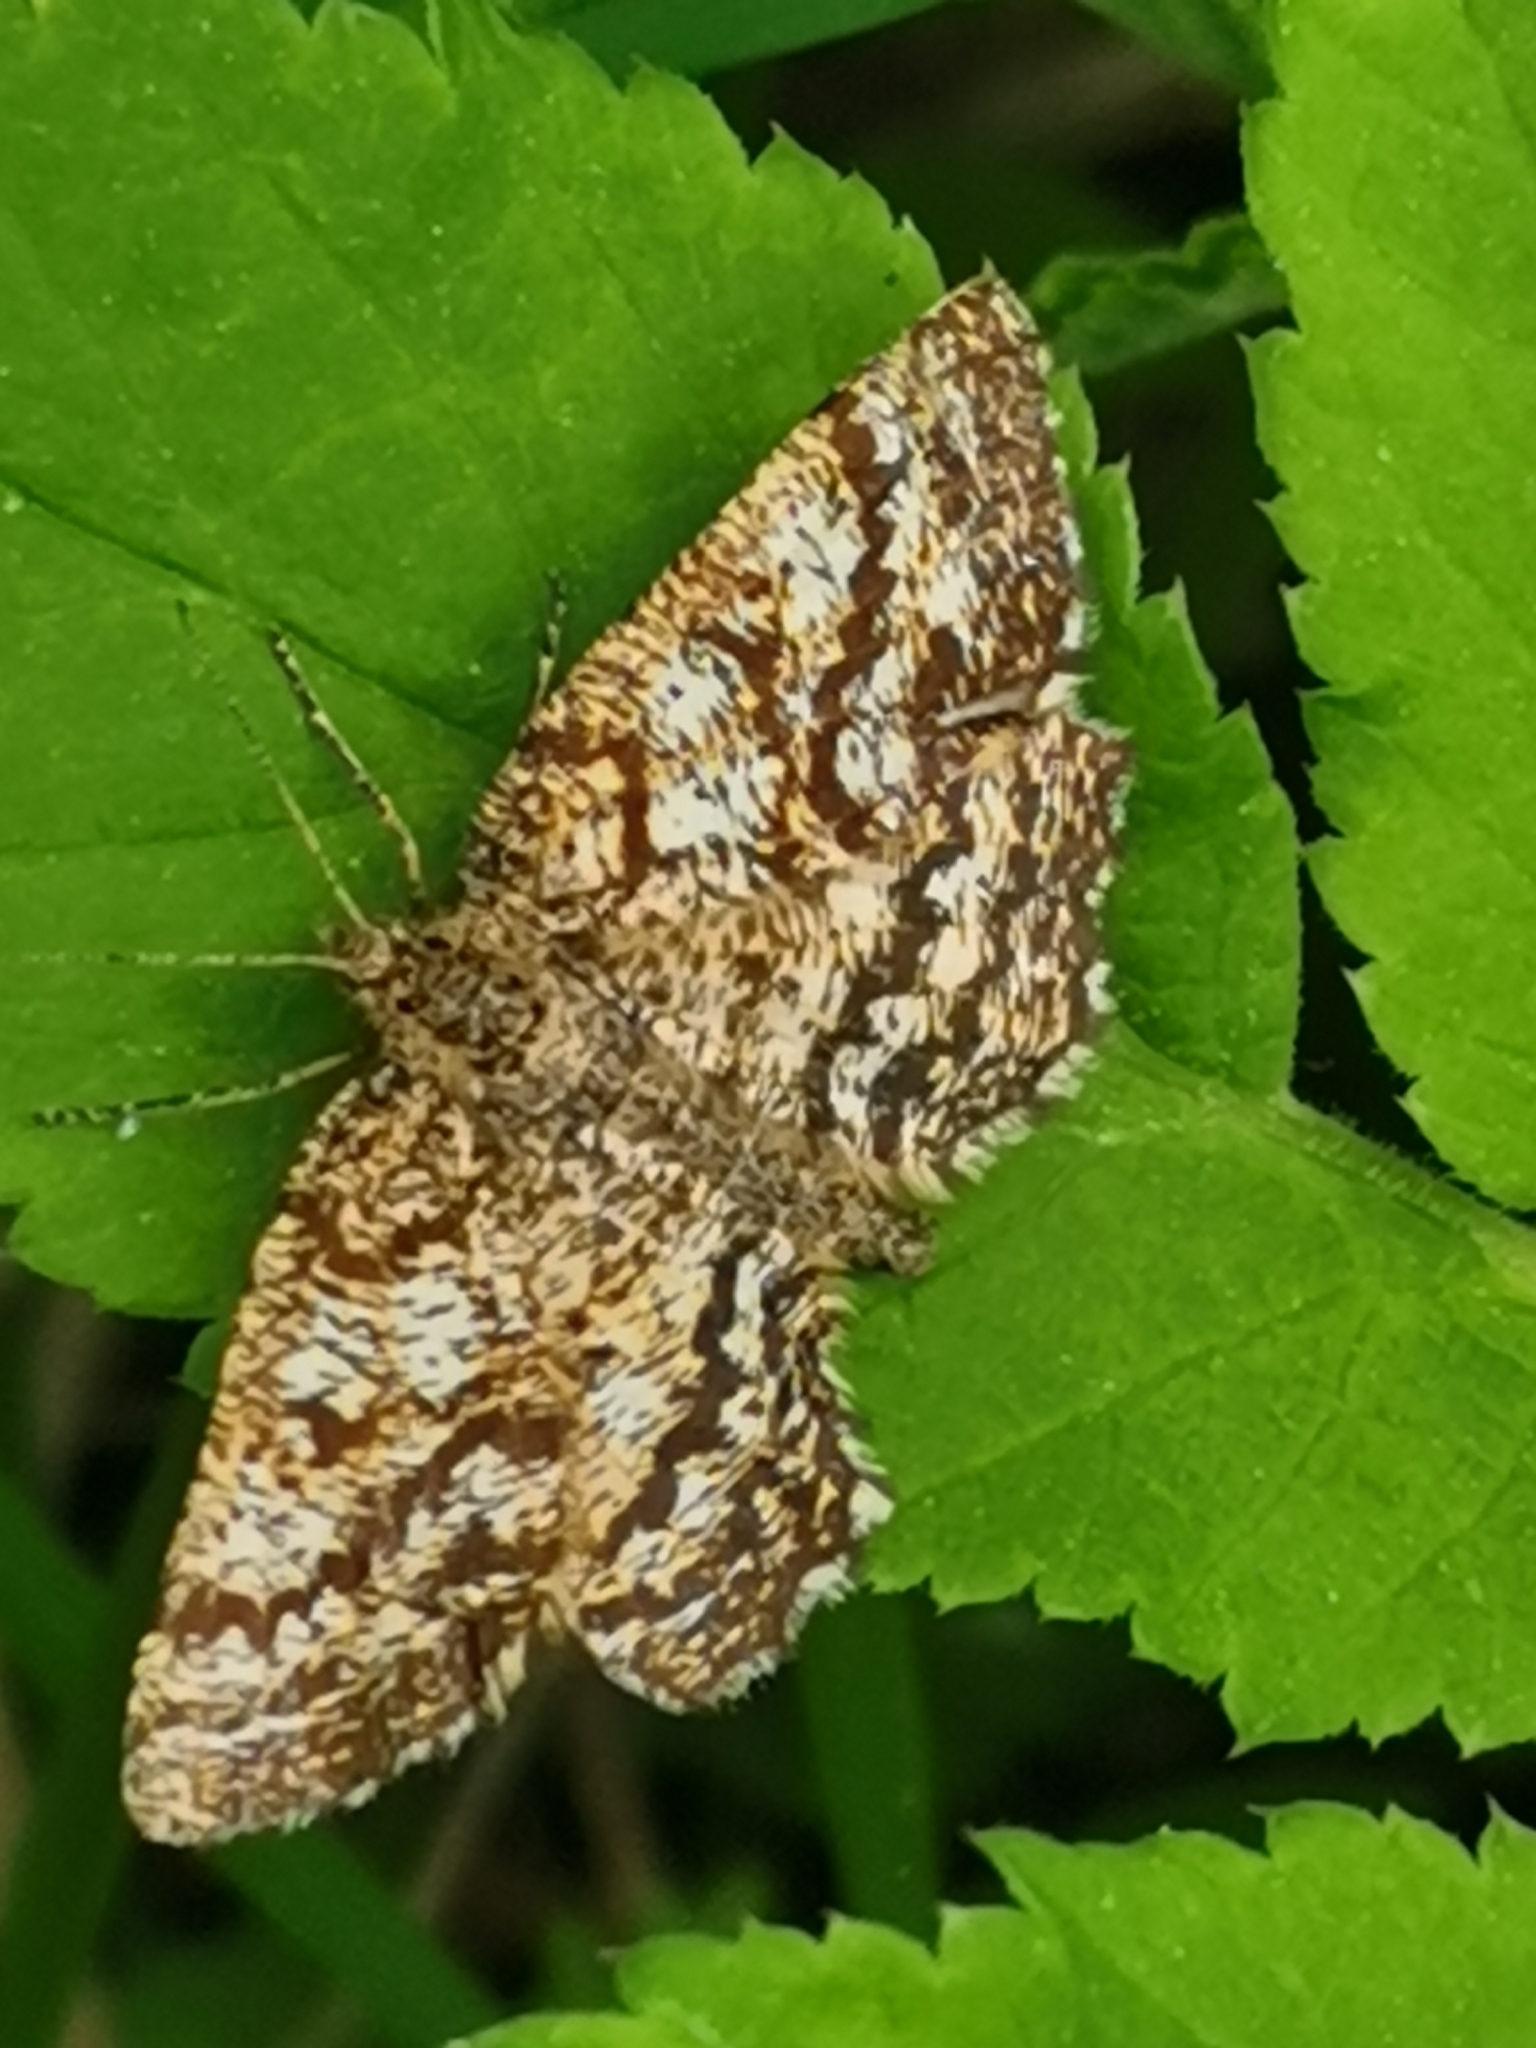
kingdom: Animalia
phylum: Arthropoda
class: Insecta
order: Lepidoptera
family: Geometridae
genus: Ematurga
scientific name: Ematurga atomaria
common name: Common heath
